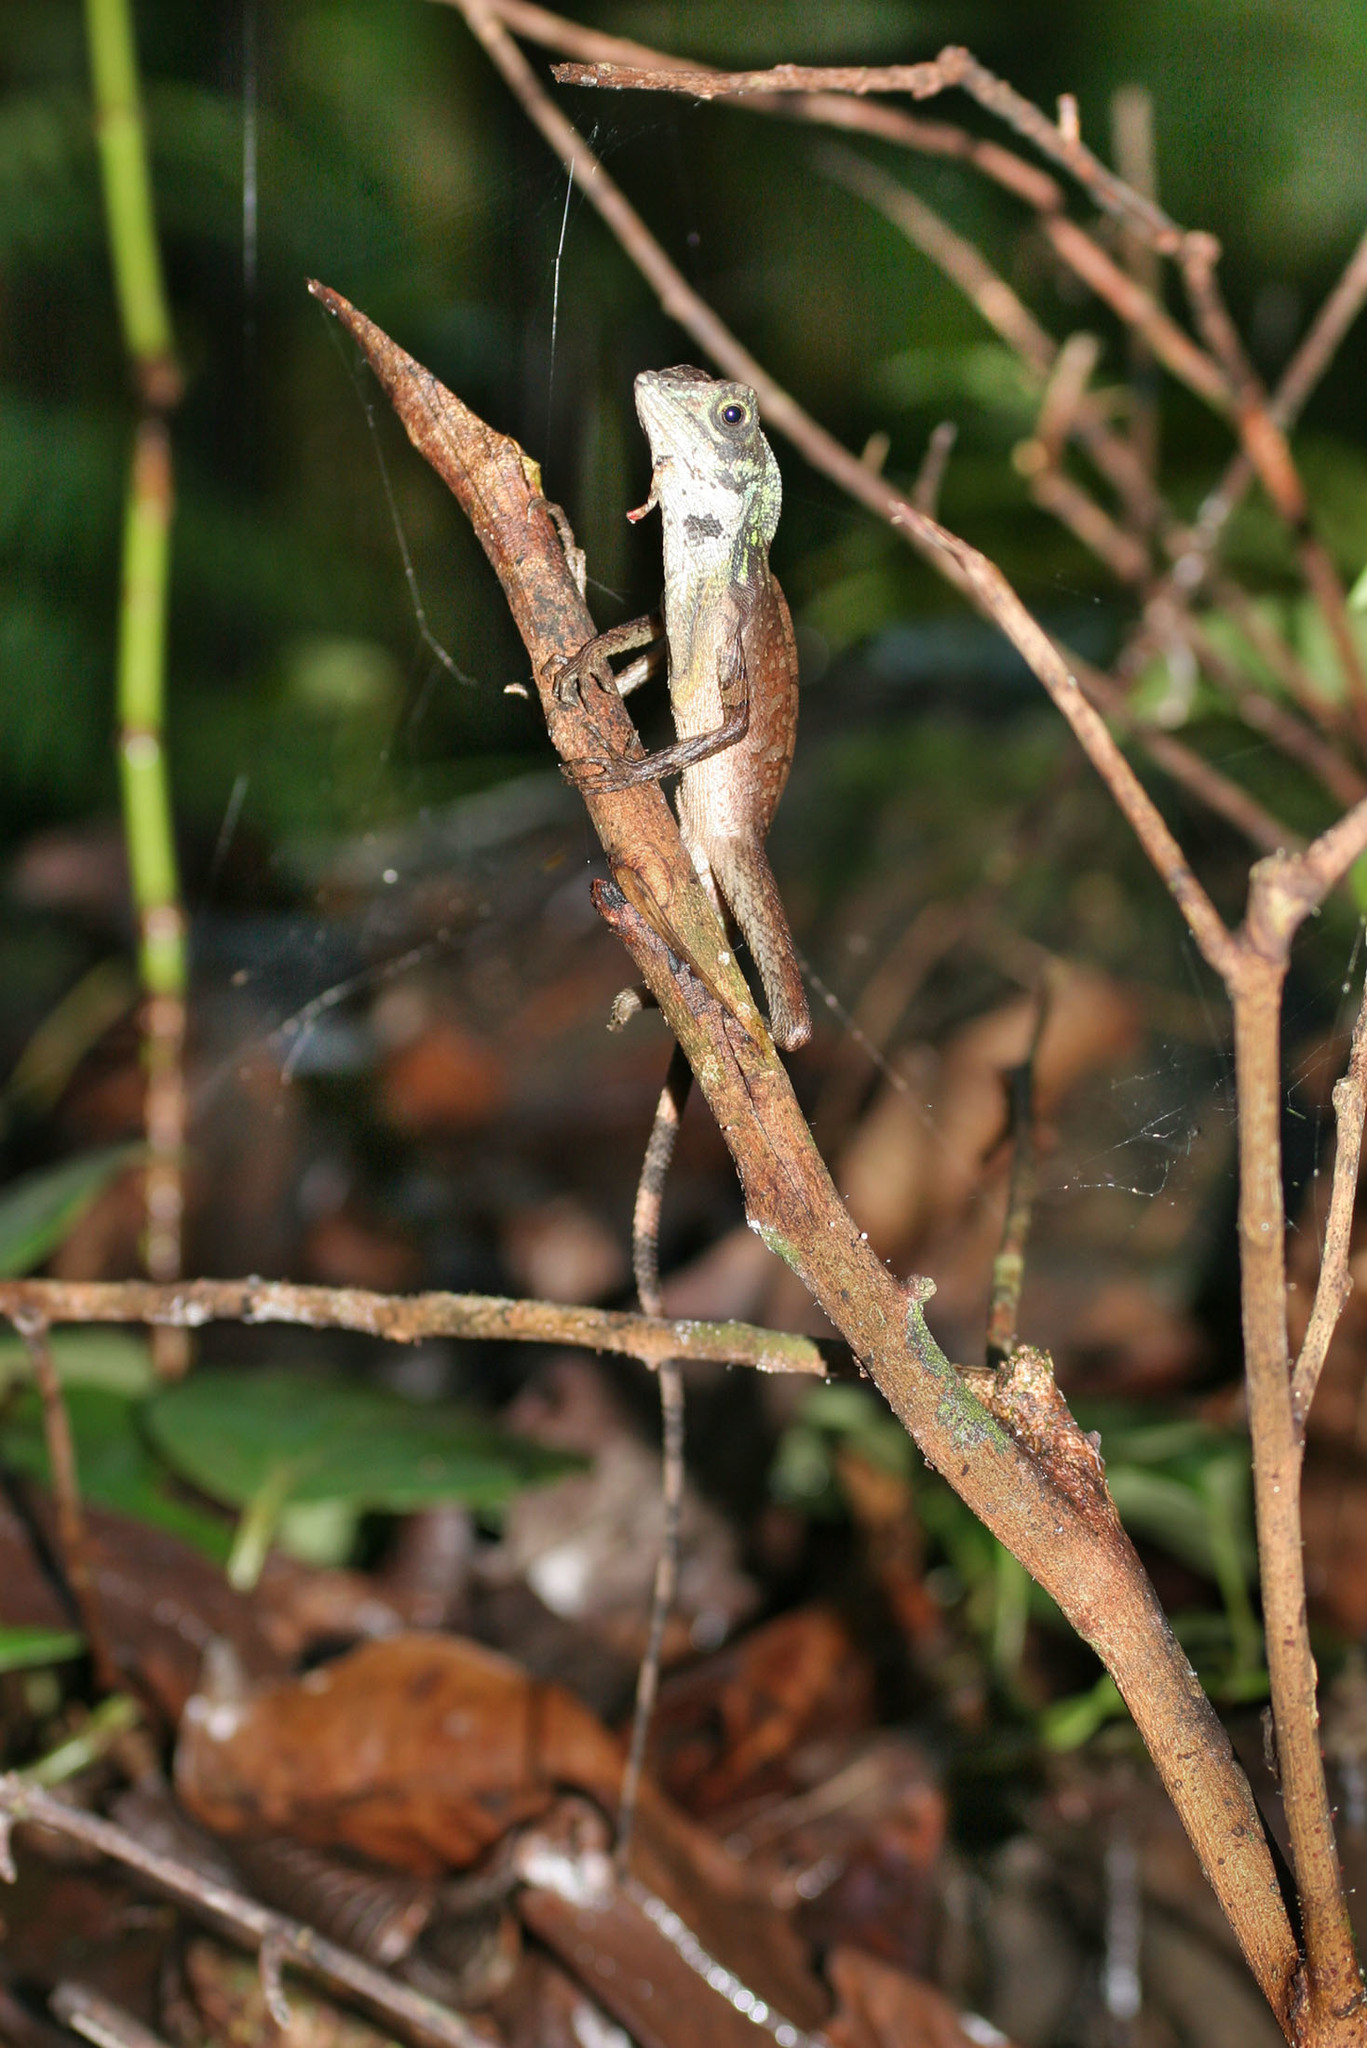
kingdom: Animalia
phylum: Chordata
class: Squamata
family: Agamidae
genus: Otocryptis
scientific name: Otocryptis wiegmanni
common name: Wiegmann's agama
